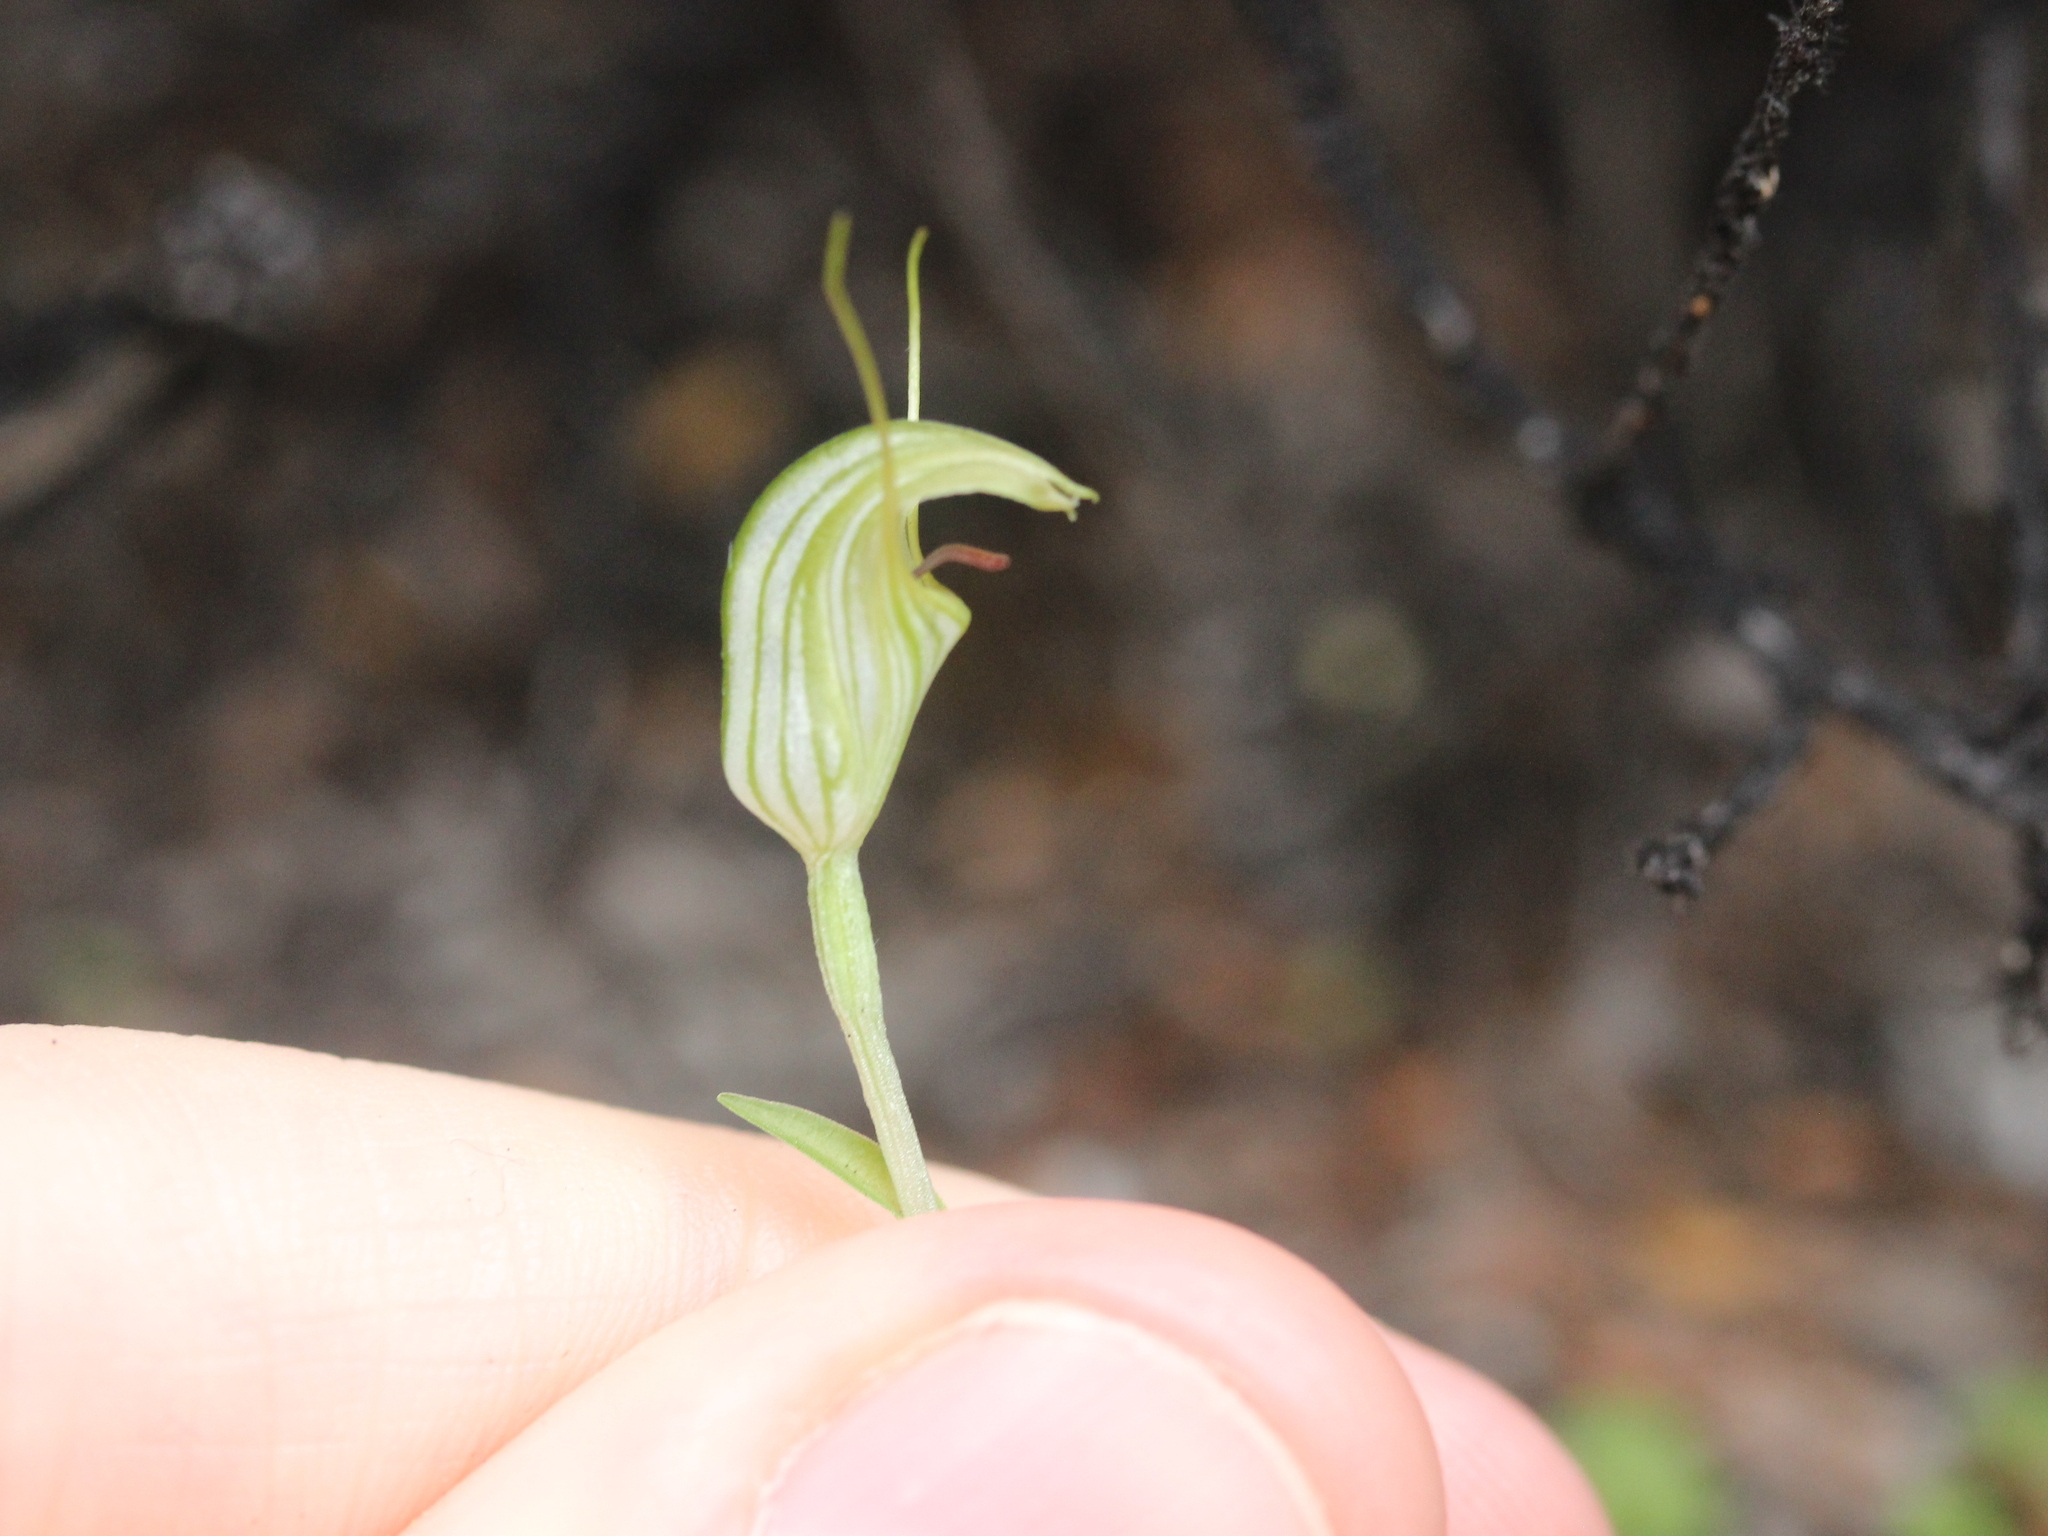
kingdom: Plantae
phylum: Tracheophyta
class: Liliopsida
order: Asparagales
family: Orchidaceae
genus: Pterostylis
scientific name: Pterostylis trullifolia
